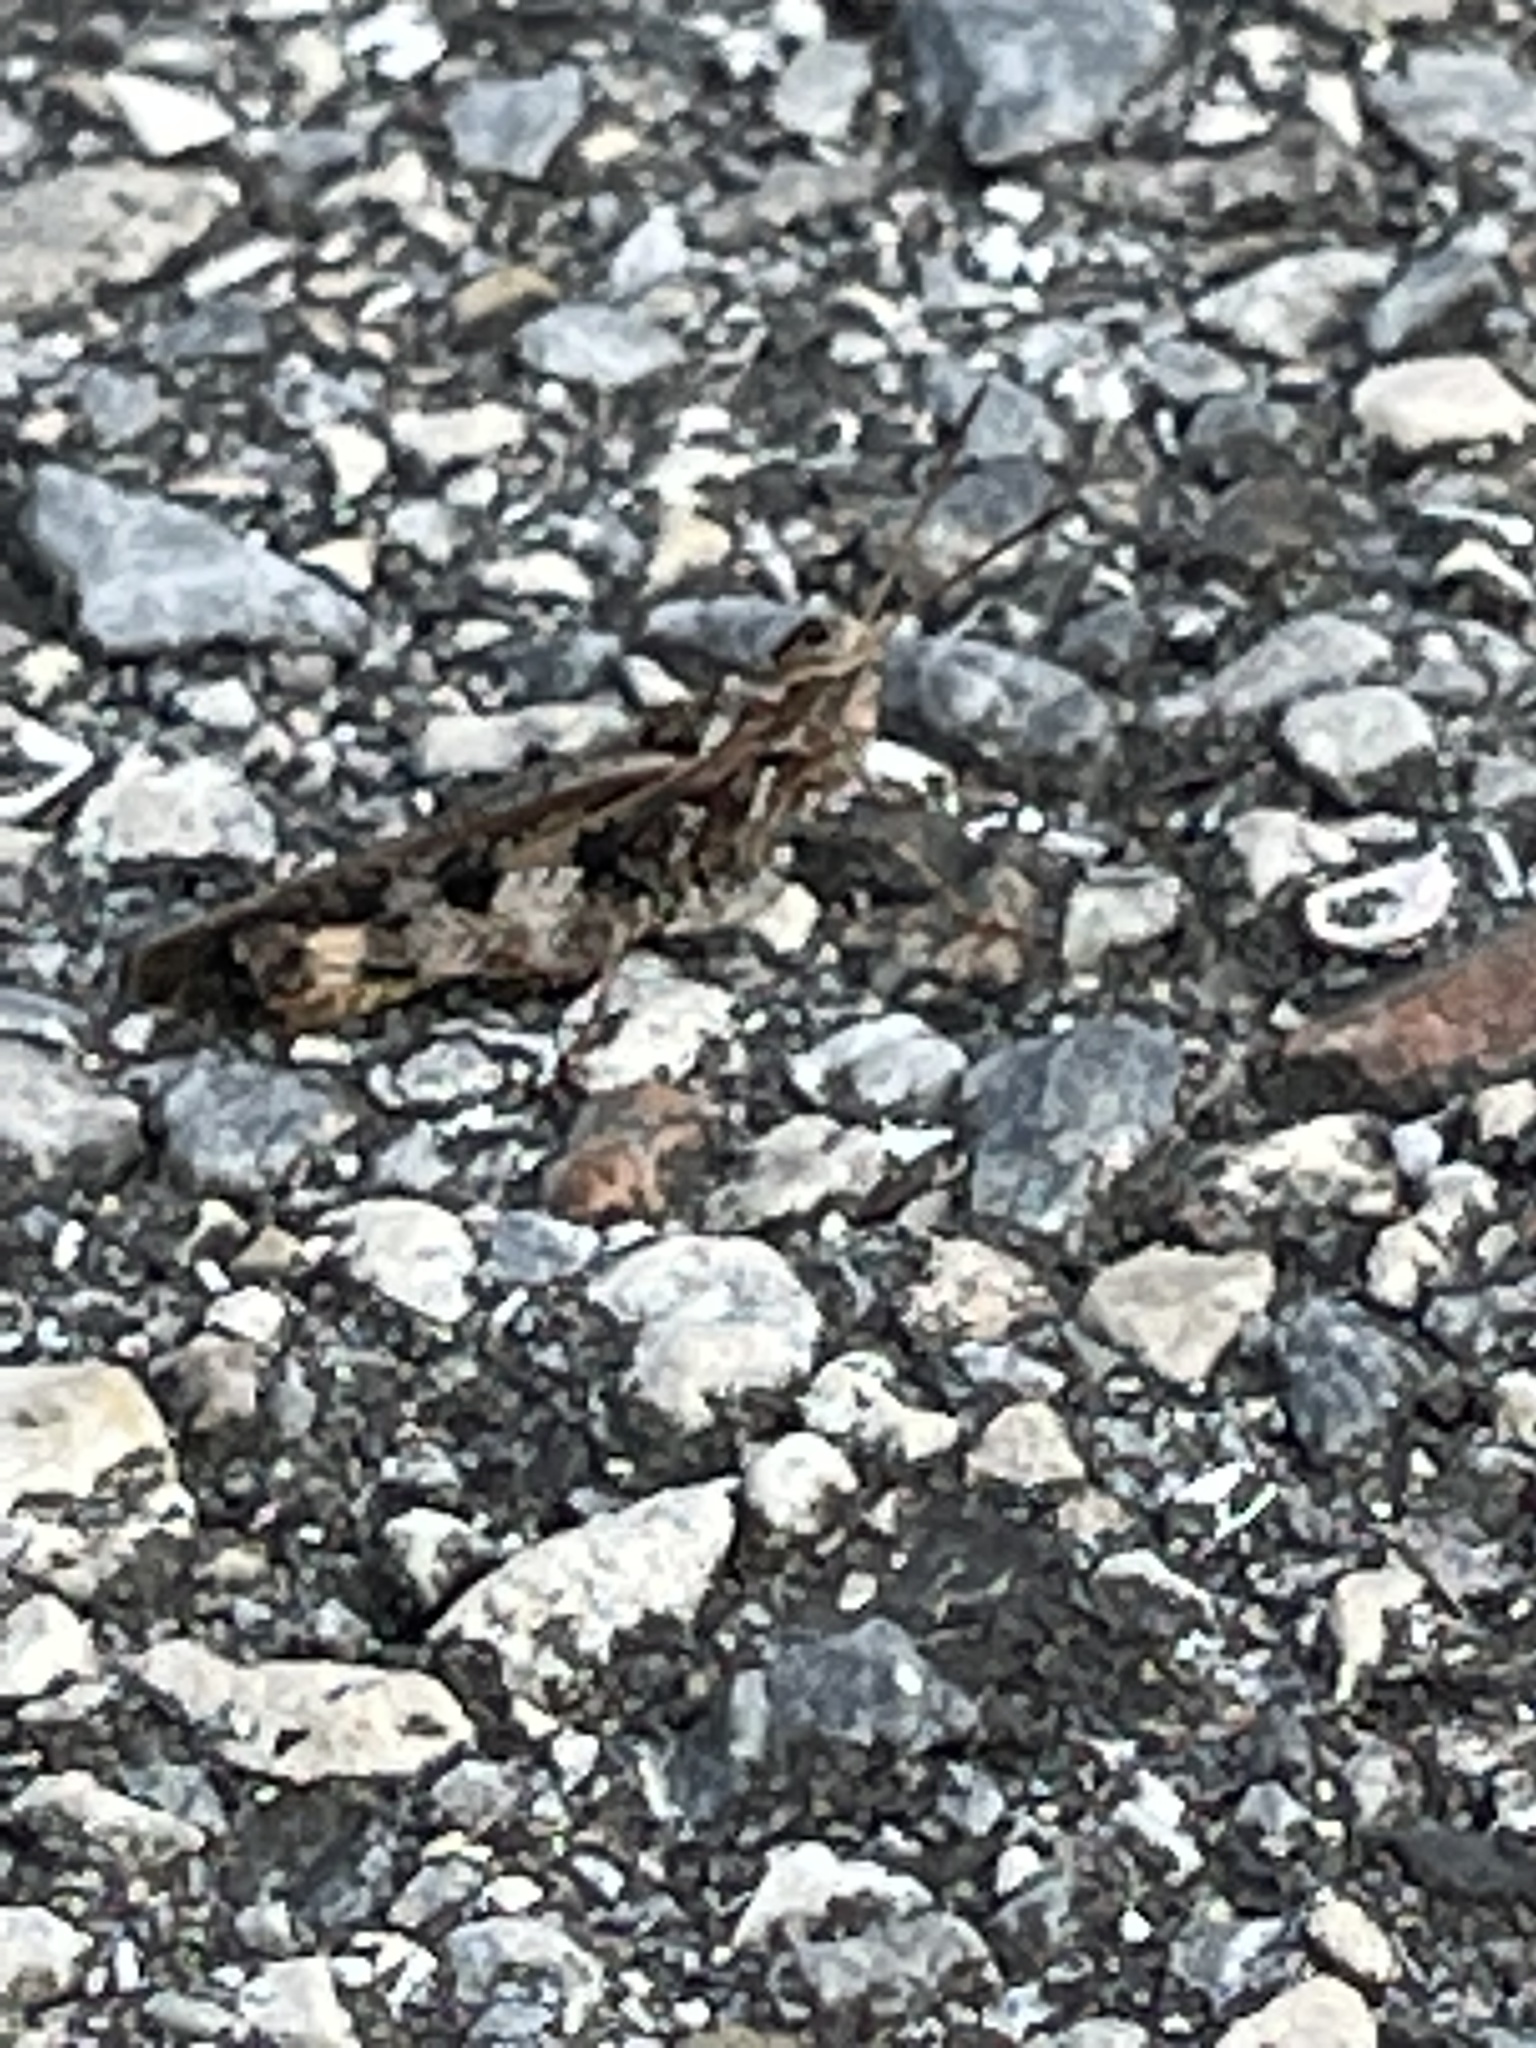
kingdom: Animalia
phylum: Arthropoda
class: Insecta
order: Orthoptera
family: Acrididae
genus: Chortophaga
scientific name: Chortophaga australior
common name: Southern green-striped grasshopper
